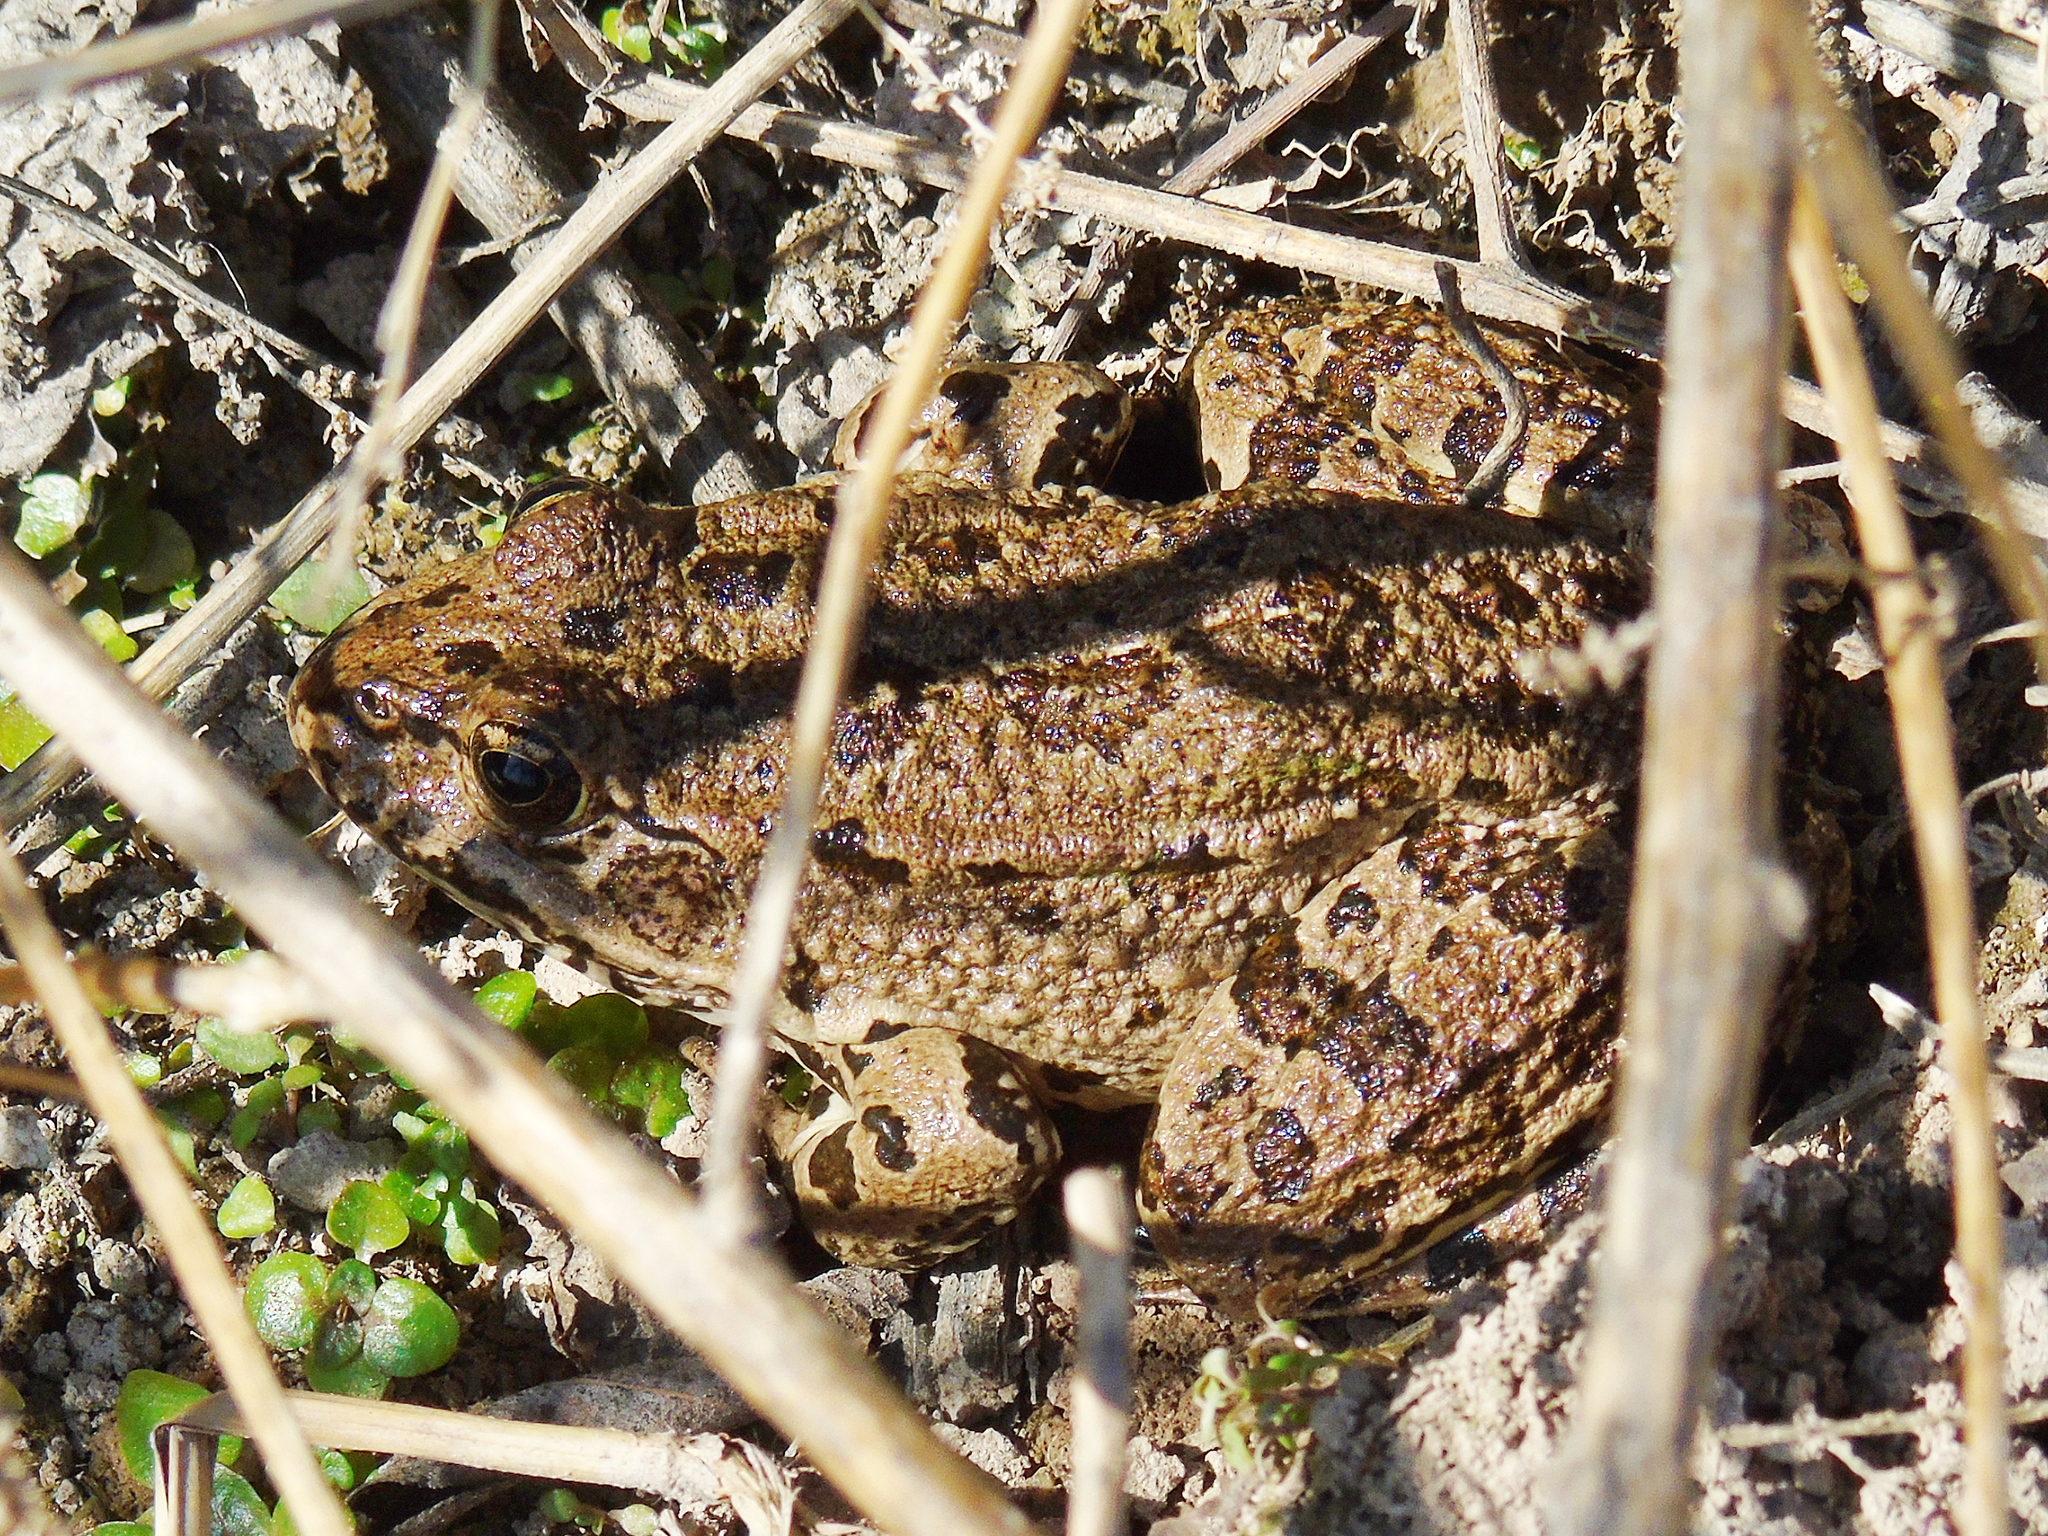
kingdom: Animalia
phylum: Chordata
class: Amphibia
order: Anura
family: Ranidae
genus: Pelophylax
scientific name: Pelophylax ridibundus
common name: Marsh frog
